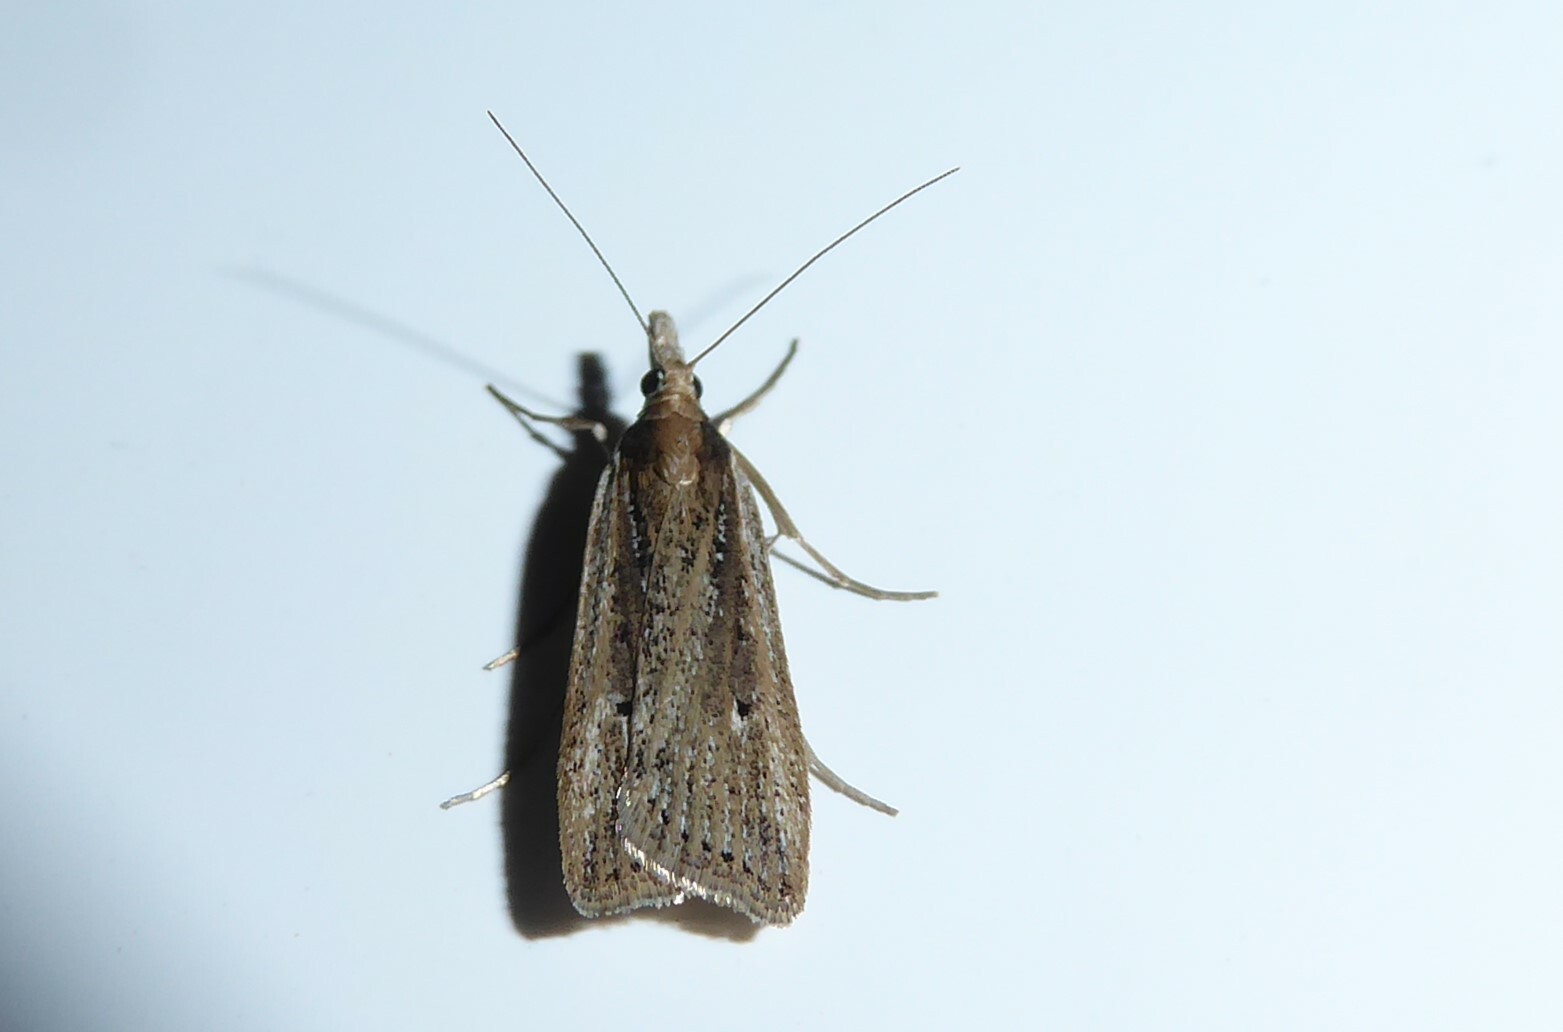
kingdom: Animalia
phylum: Arthropoda
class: Insecta
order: Lepidoptera
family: Crambidae
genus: Eudonia
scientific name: Eudonia sabulosella
